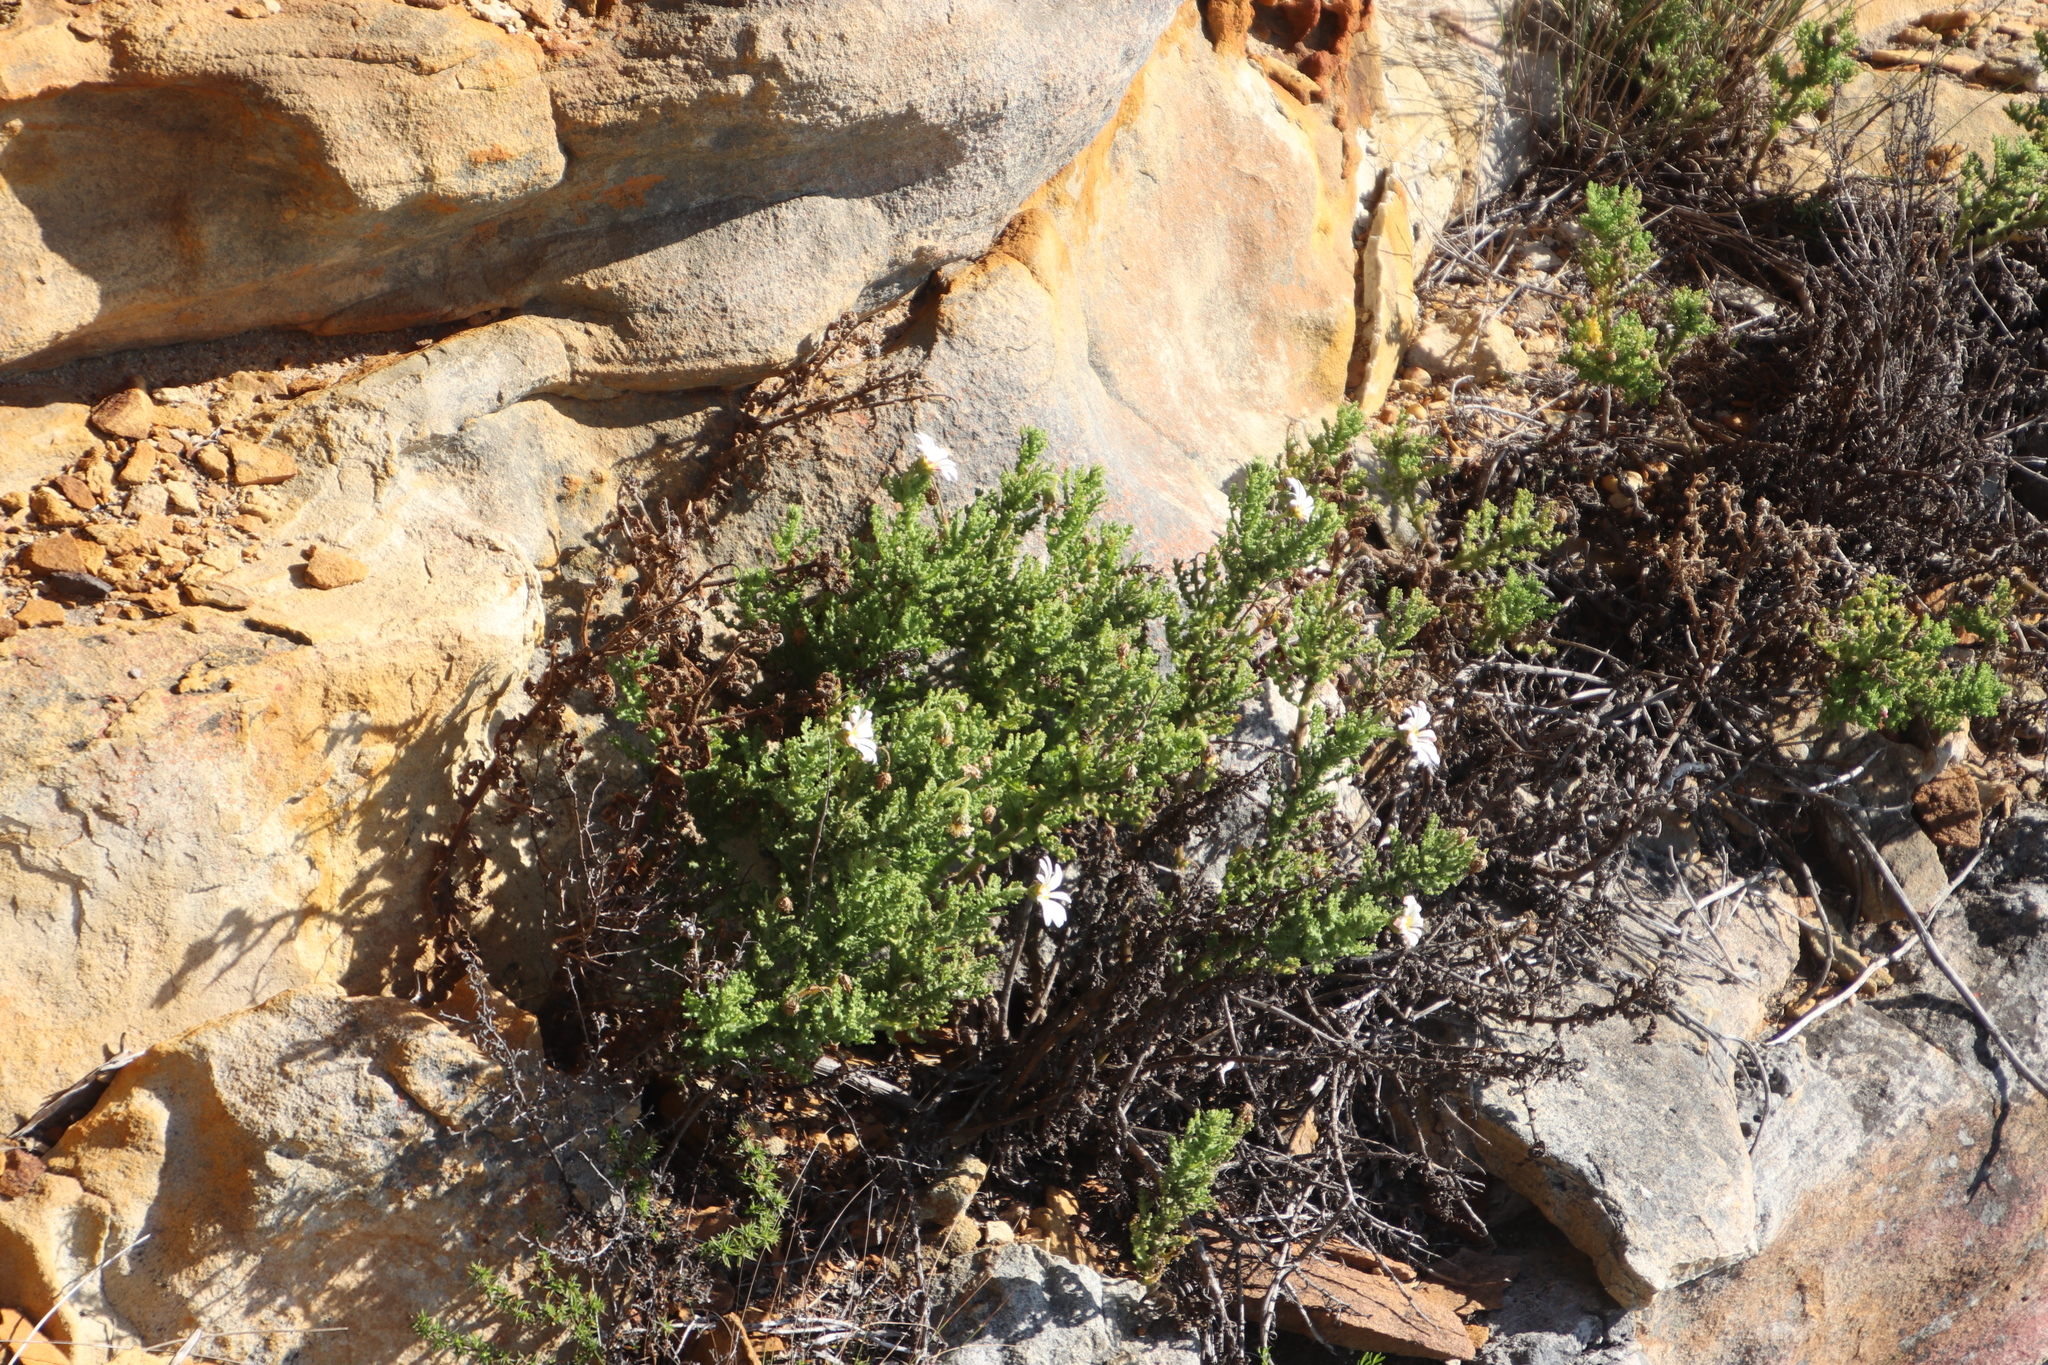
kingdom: Plantae
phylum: Tracheophyta
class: Magnoliopsida
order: Asterales
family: Asteraceae
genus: Arctotis
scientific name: Arctotis aspera
